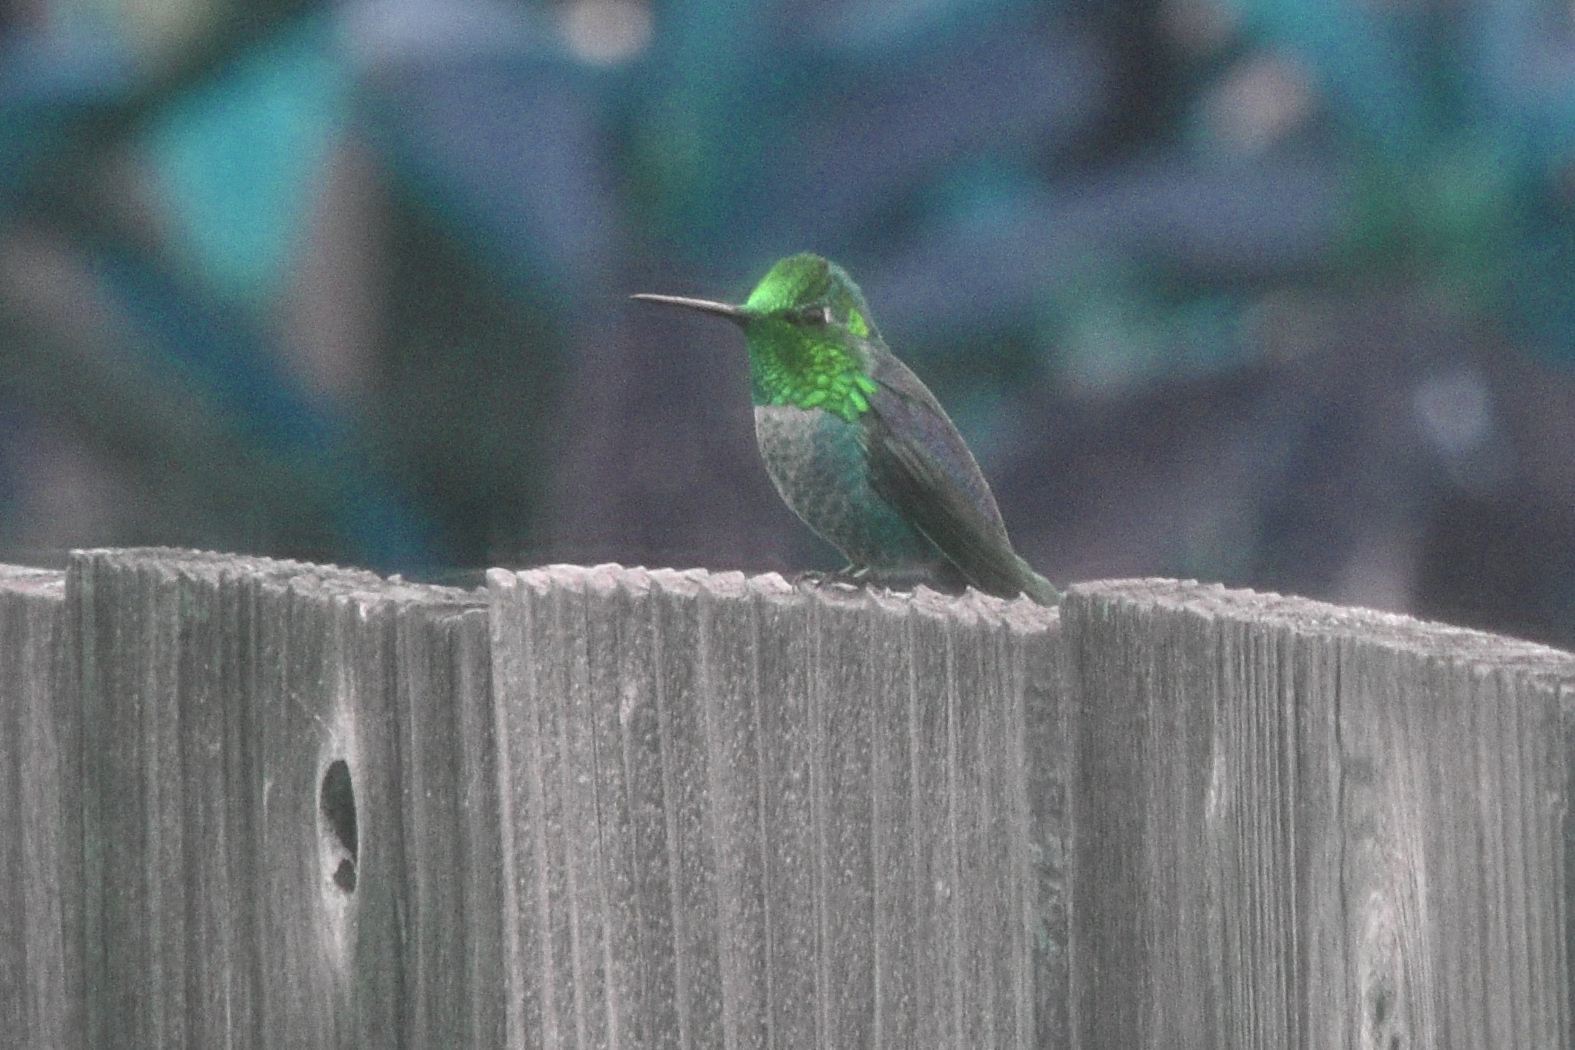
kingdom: Animalia
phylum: Chordata
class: Aves
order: Apodiformes
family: Trochilidae
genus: Calypte
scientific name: Calypte anna
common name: Anna's hummingbird
